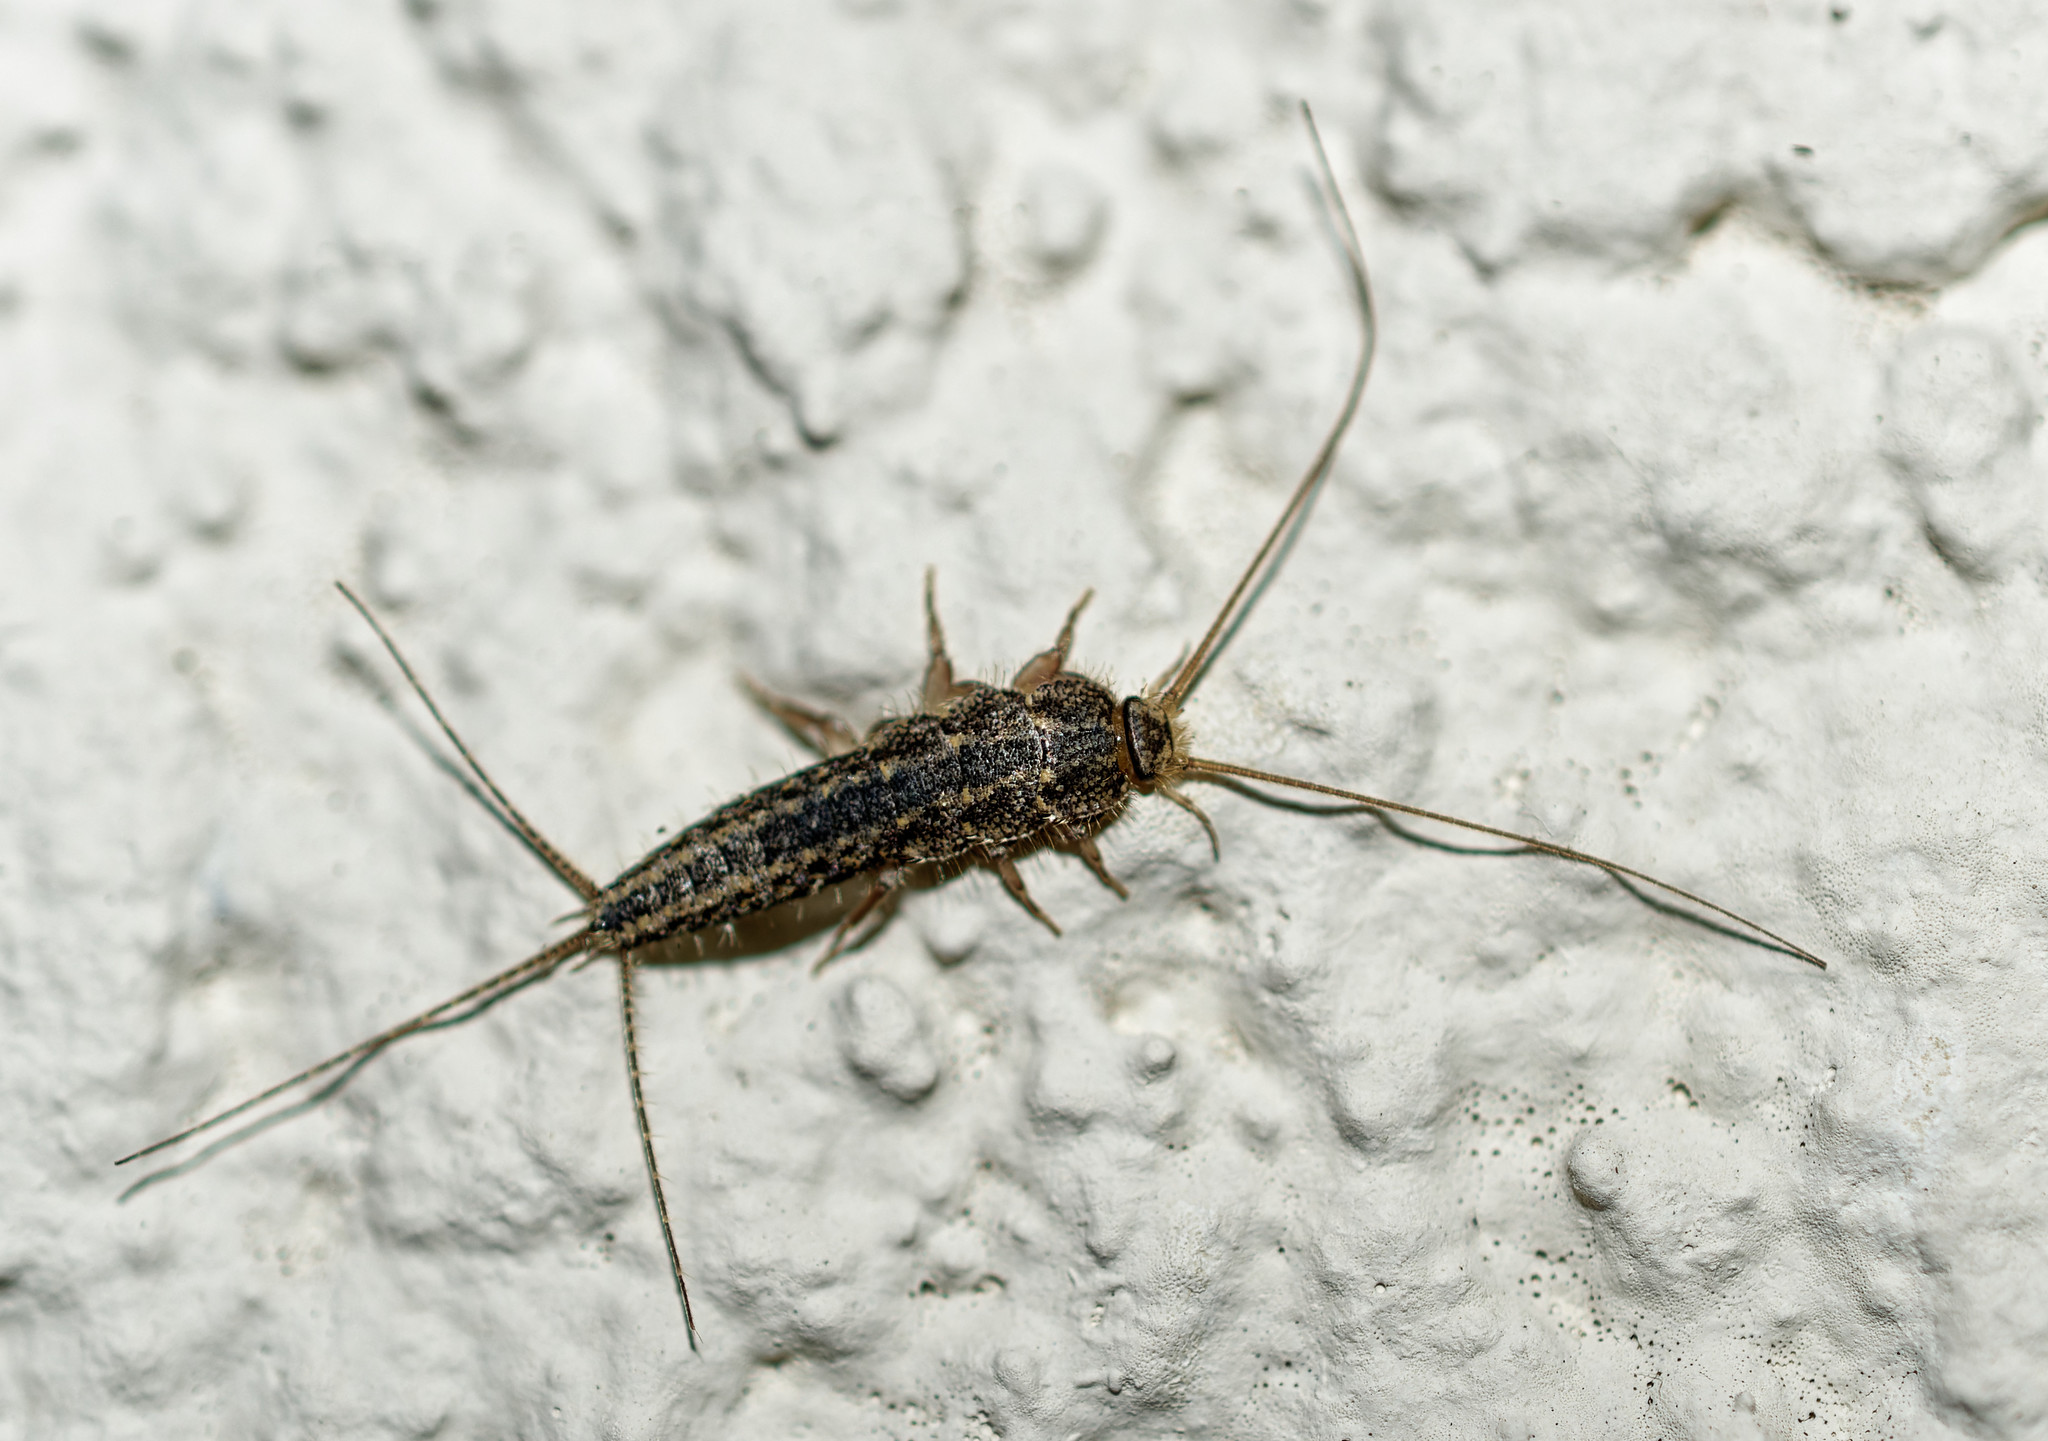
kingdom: Animalia
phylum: Arthropoda
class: Insecta
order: Zygentoma
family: Lepismatidae
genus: Ctenolepisma
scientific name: Ctenolepisma lineata
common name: Four-lined silverfish
